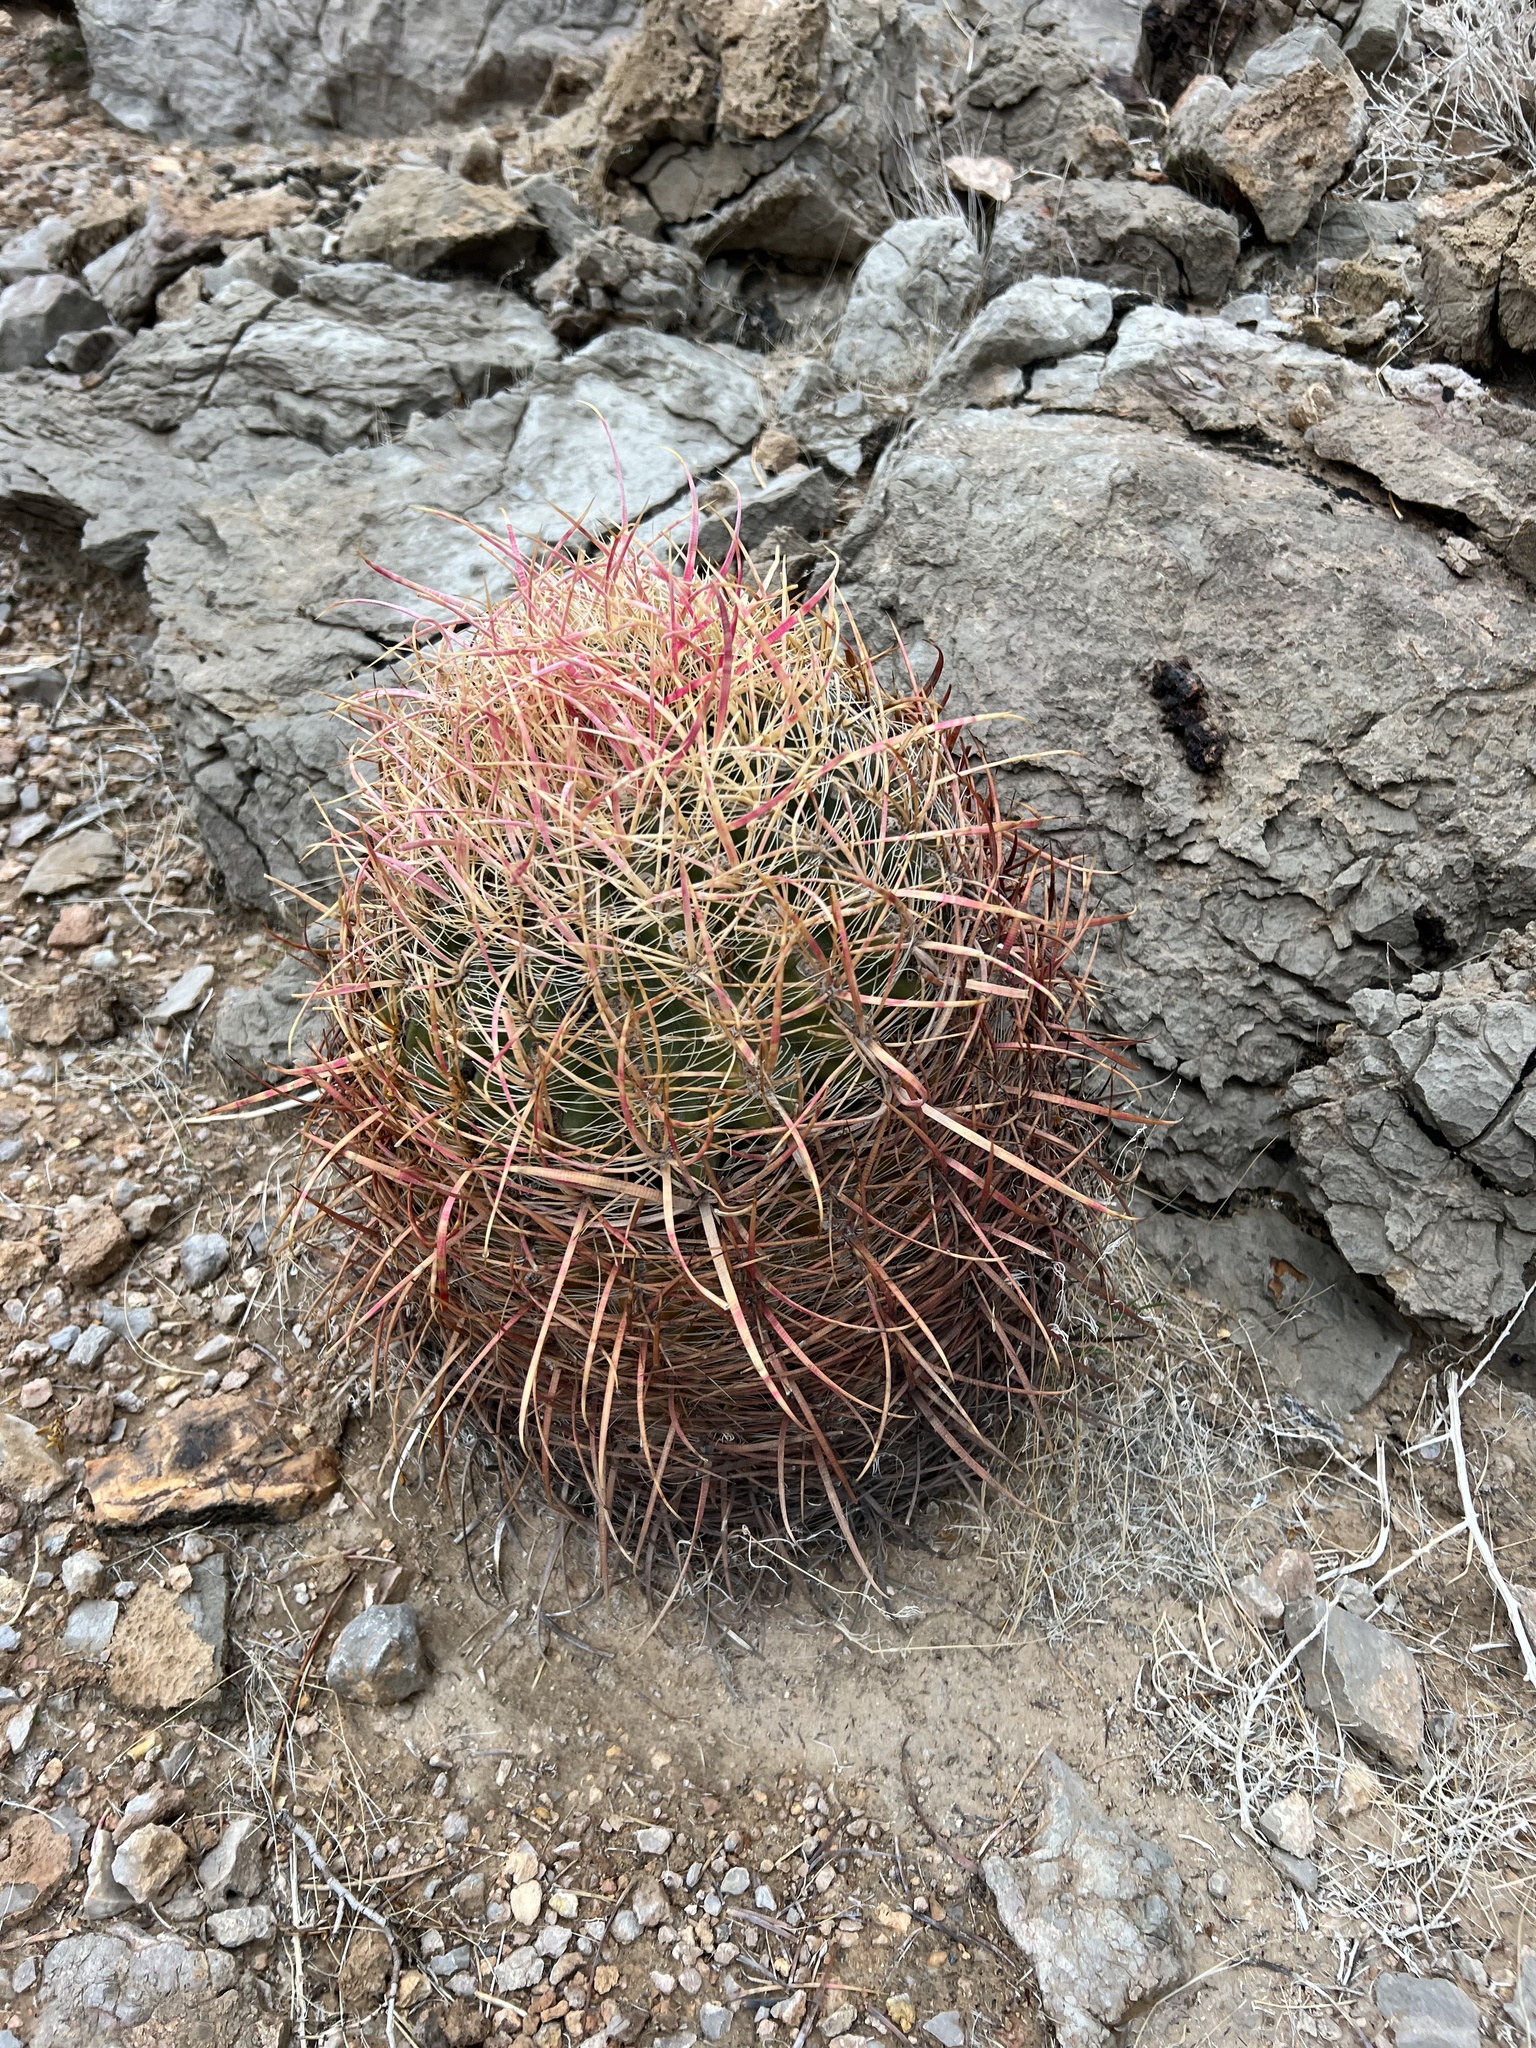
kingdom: Plantae
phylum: Tracheophyta
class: Magnoliopsida
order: Caryophyllales
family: Cactaceae
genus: Ferocactus
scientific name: Ferocactus cylindraceus
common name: California barrel cactus
